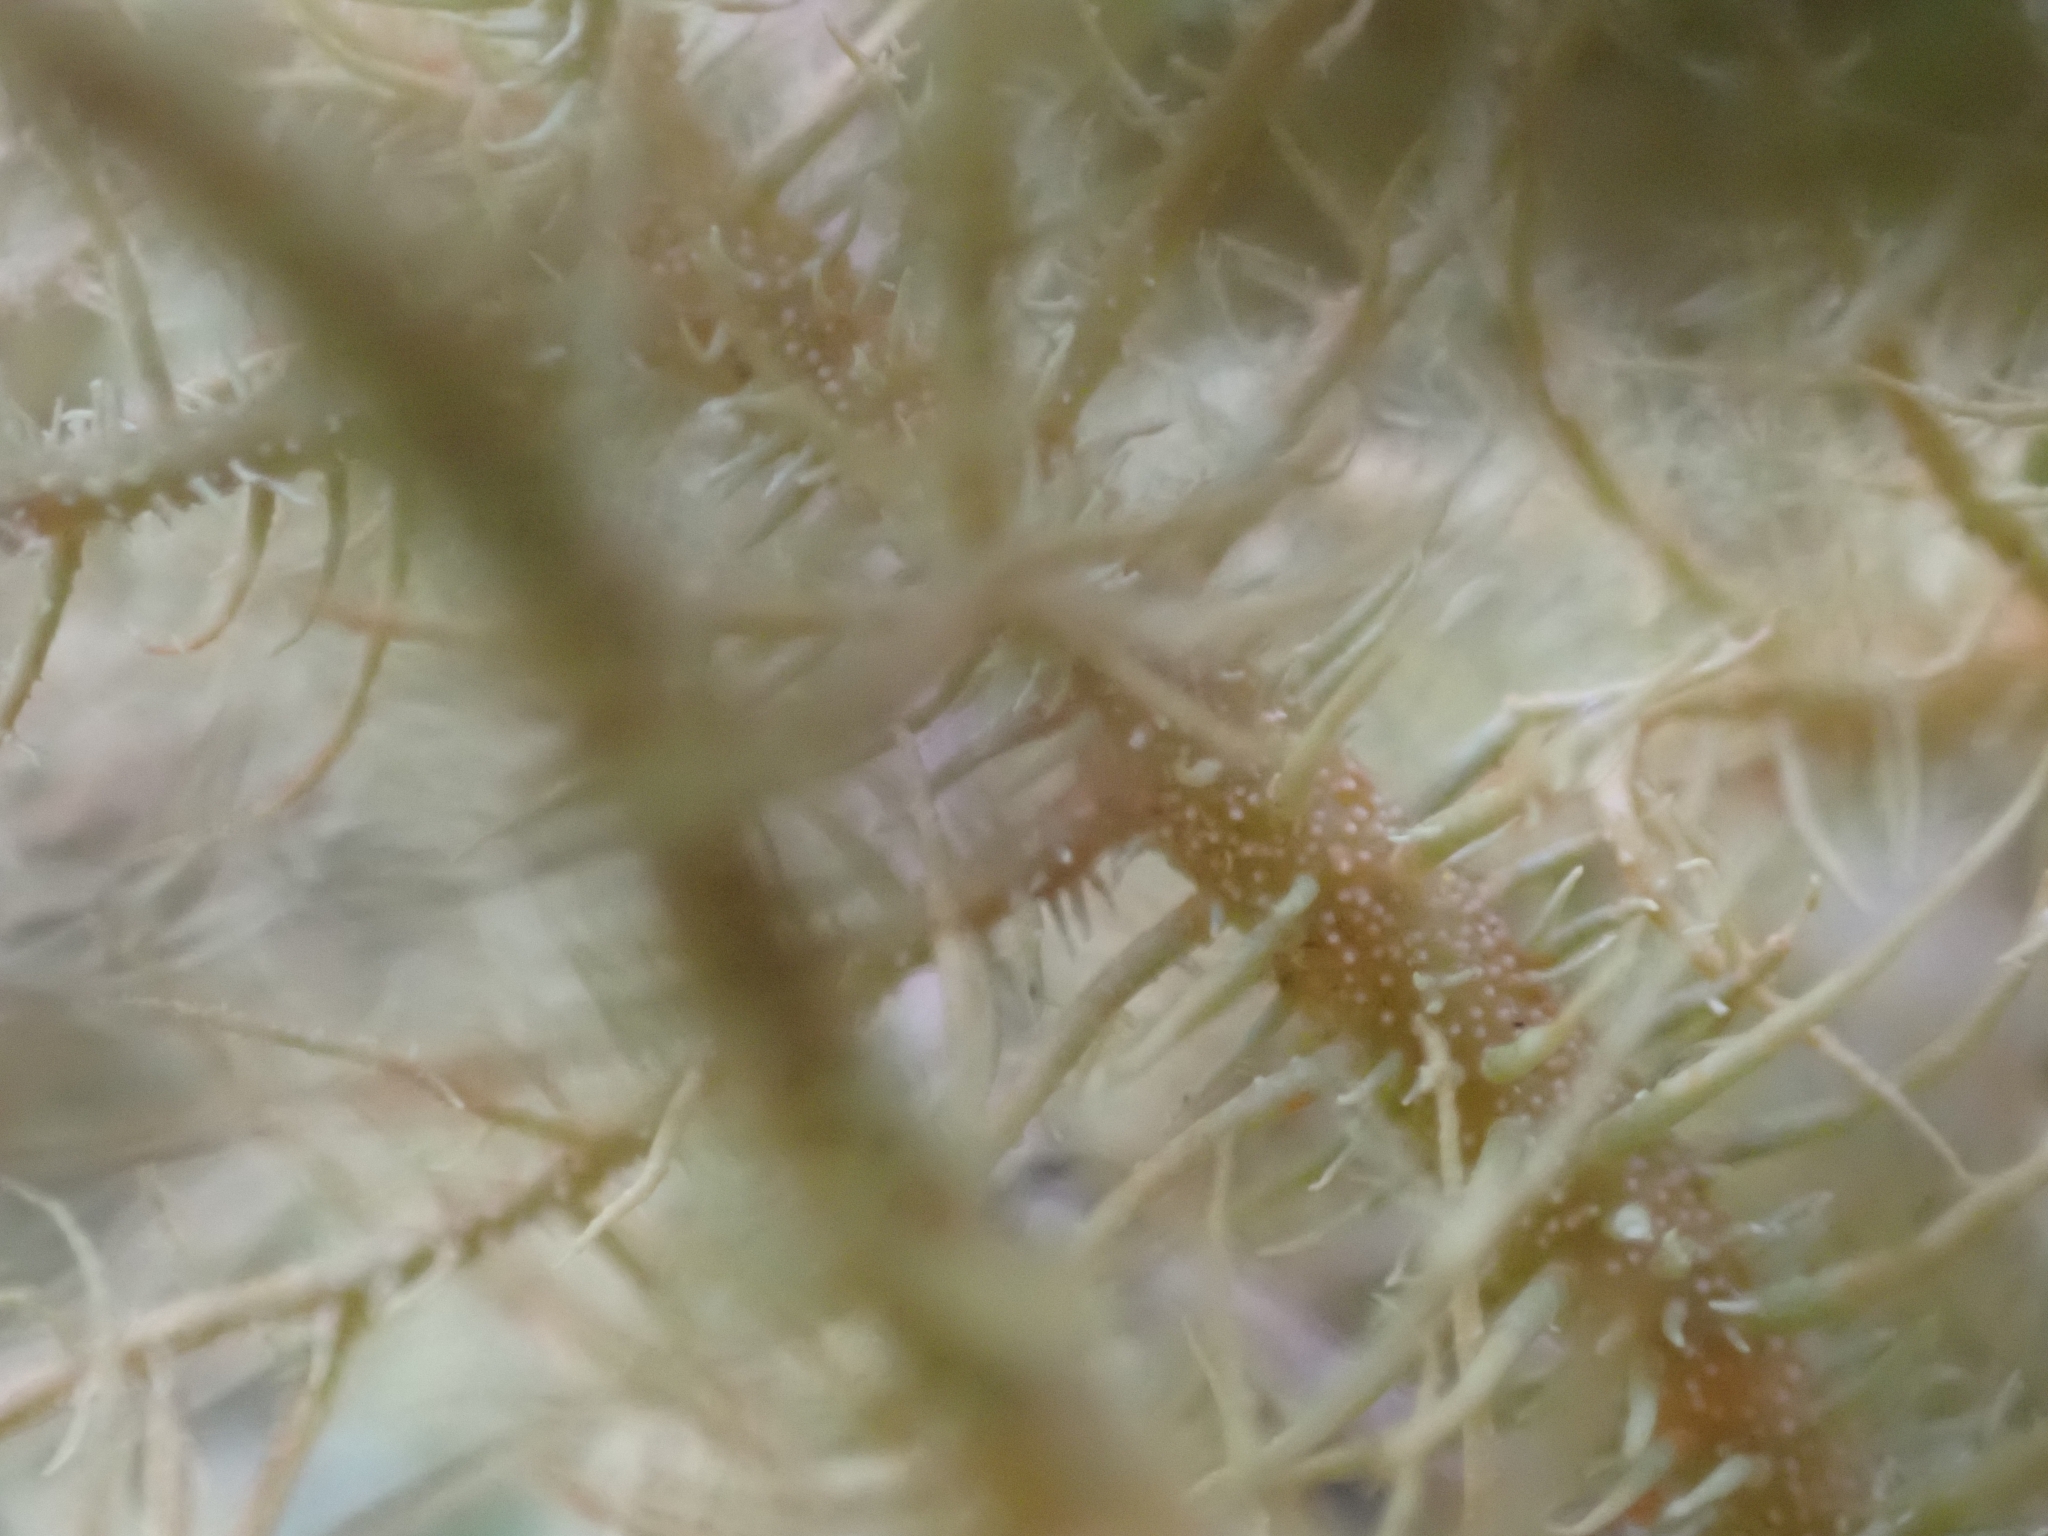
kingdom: Fungi
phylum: Ascomycota
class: Lecanoromycetes
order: Lecanorales
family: Parmeliaceae
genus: Usnea
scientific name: Usnea rubicunda
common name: Red beard lichen
